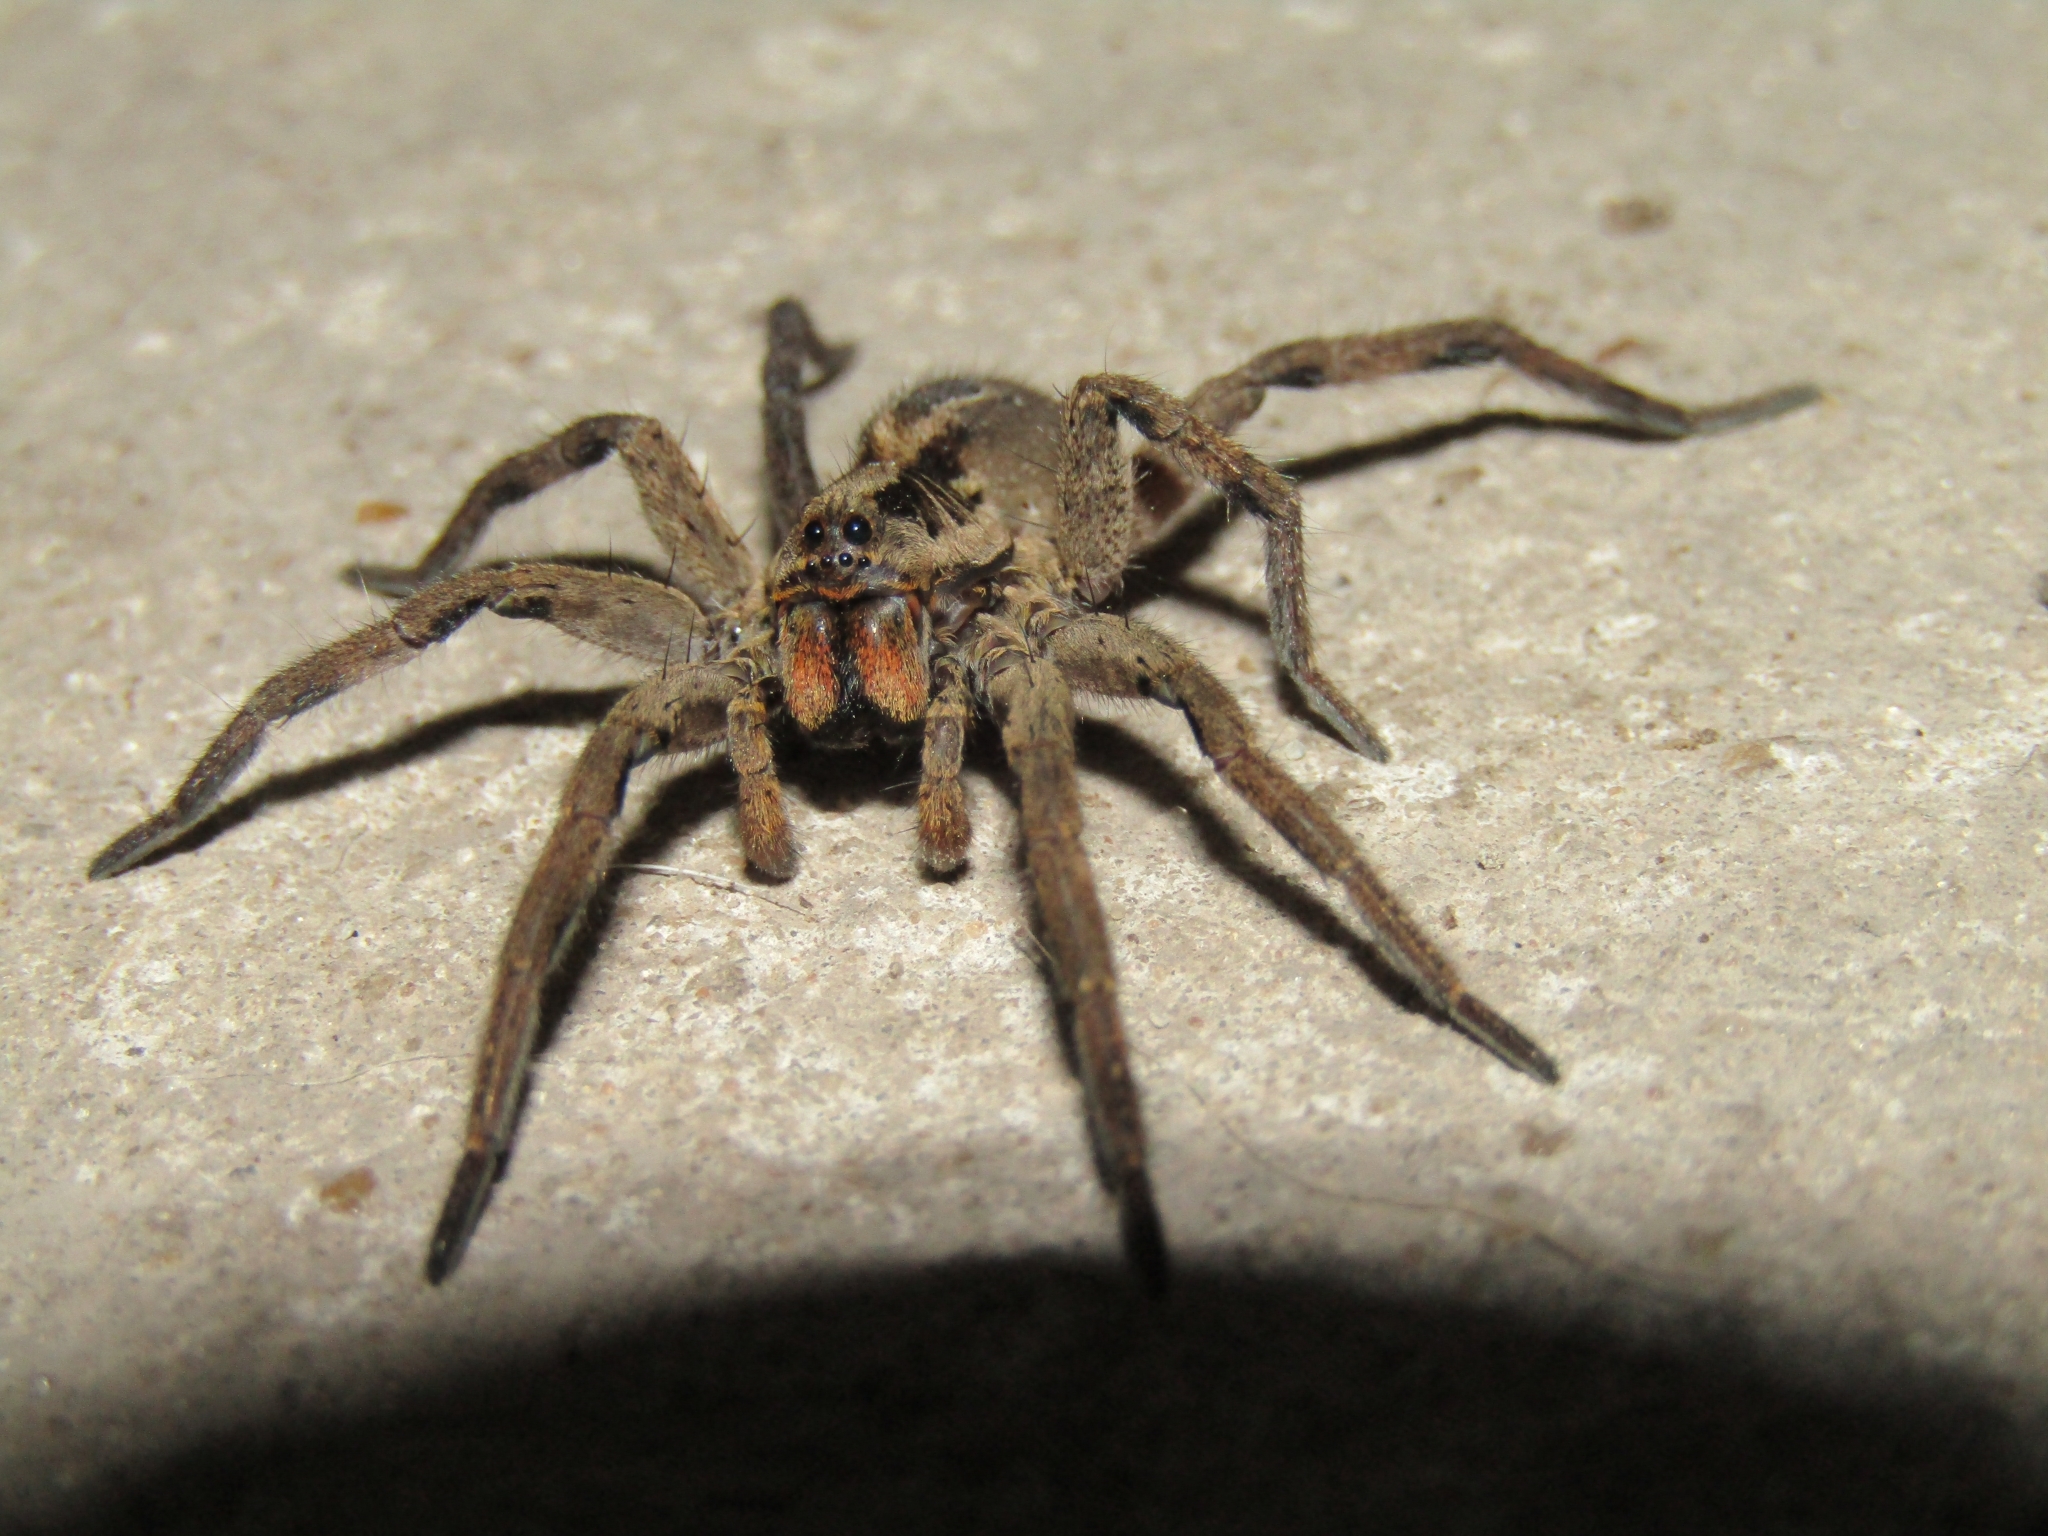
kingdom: Animalia
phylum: Arthropoda
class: Arachnida
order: Araneae
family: Lycosidae
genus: Lycosa
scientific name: Lycosa erythrognatha
